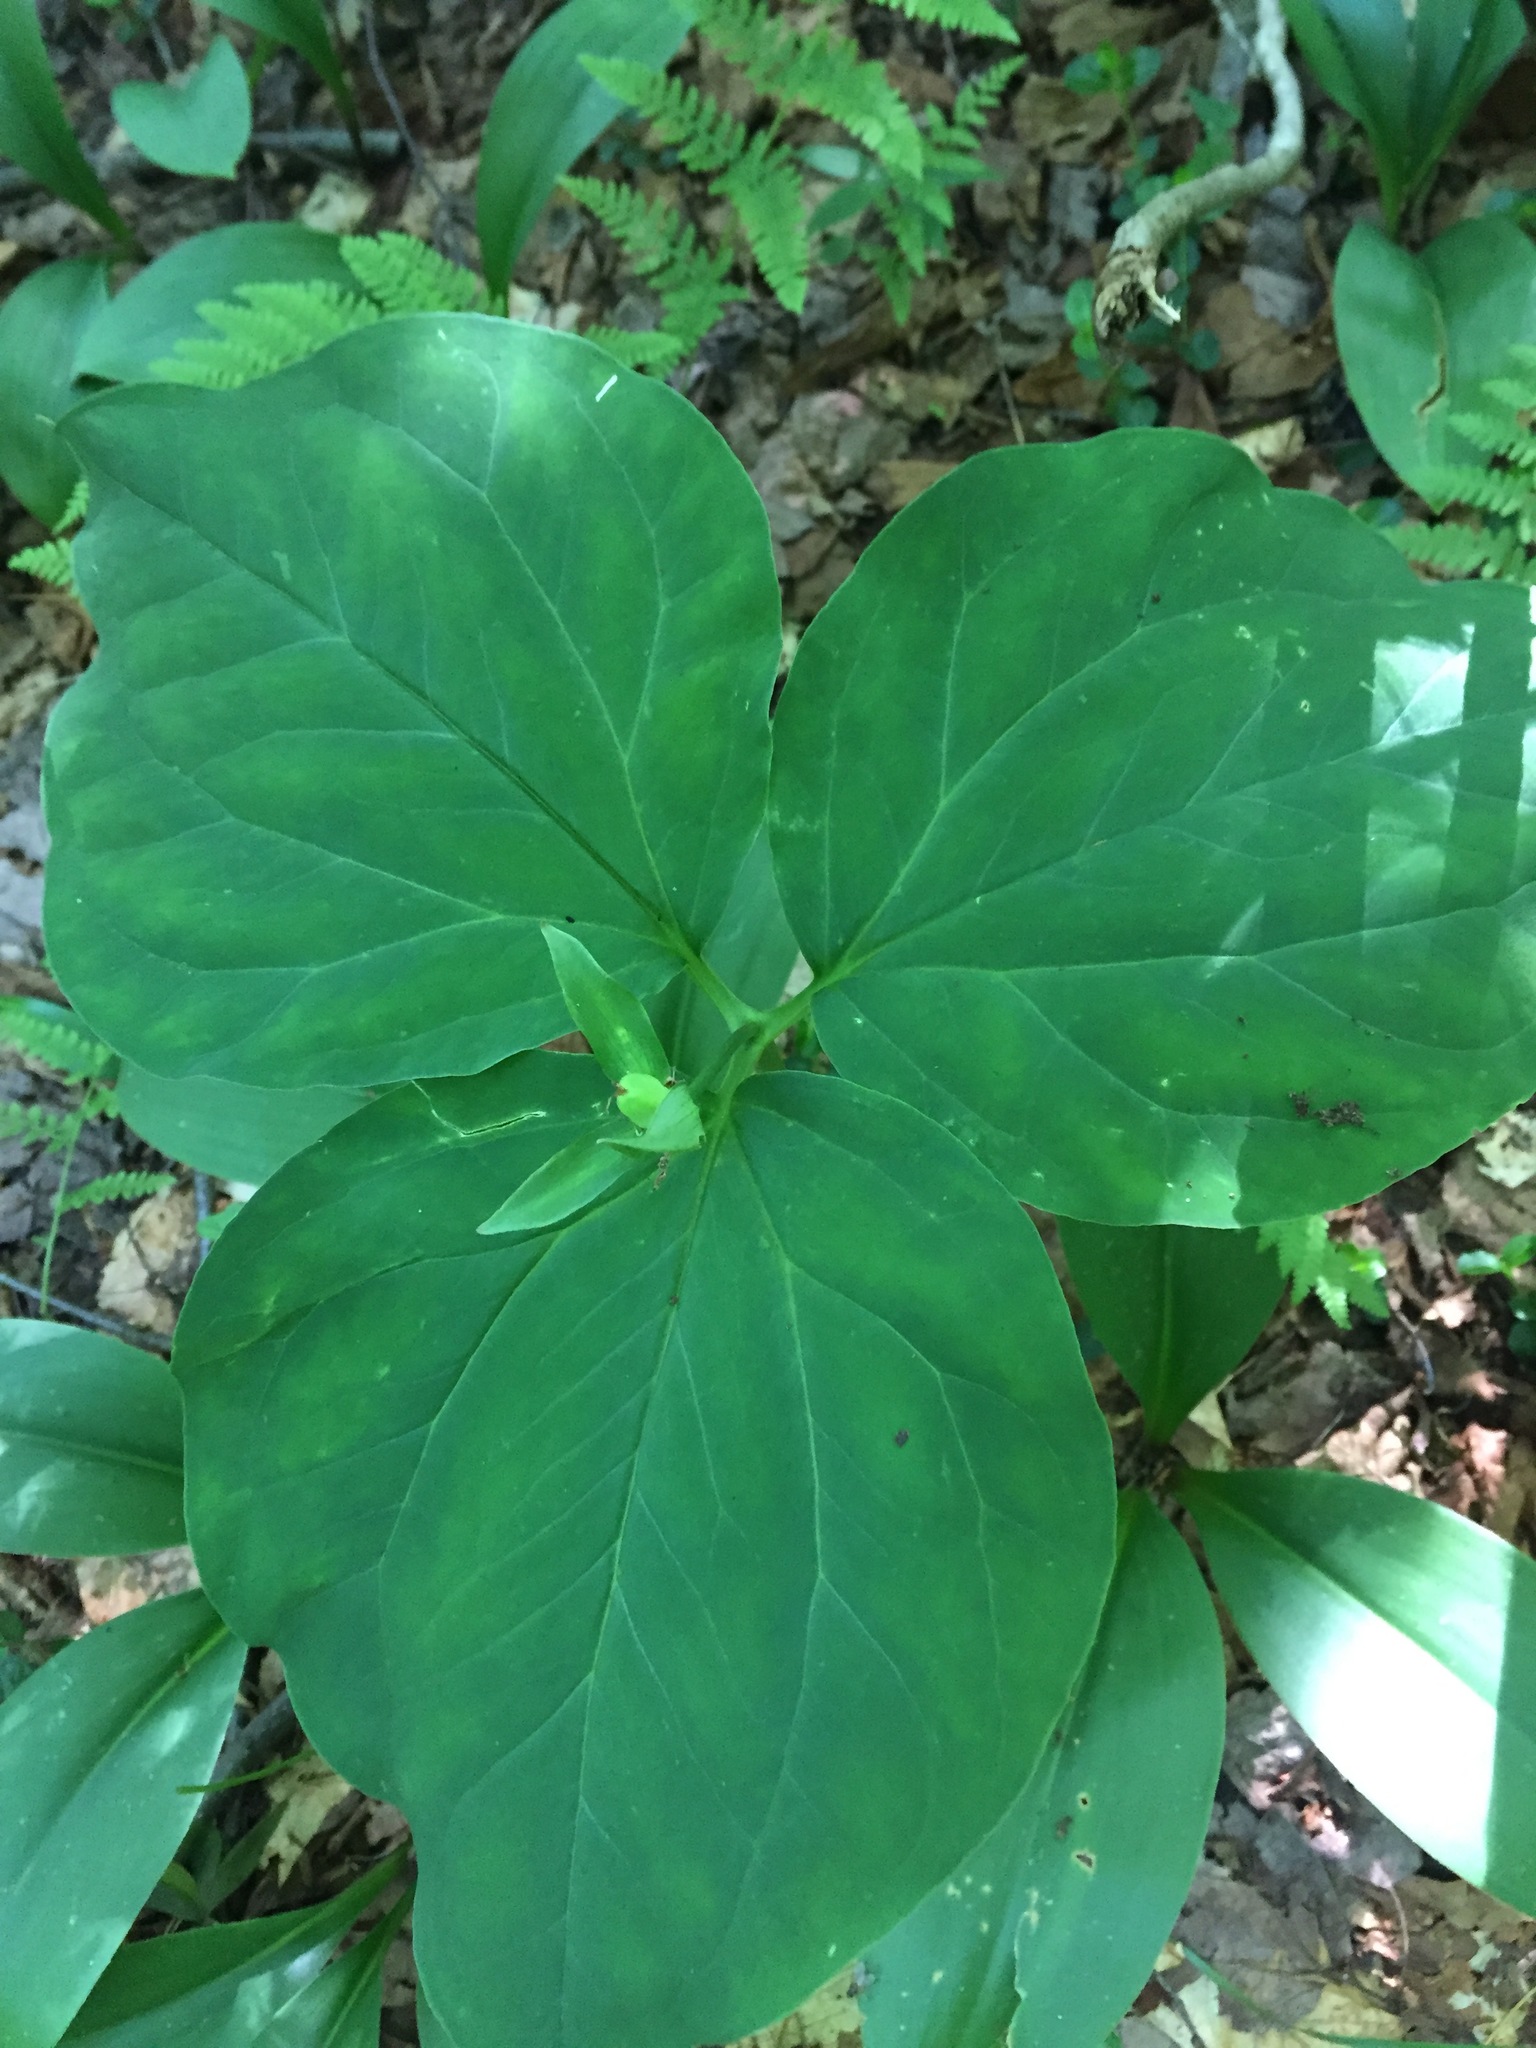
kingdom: Plantae
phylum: Tracheophyta
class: Liliopsida
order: Liliales
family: Melanthiaceae
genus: Trillium
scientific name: Trillium undulatum
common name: Paint trillium
